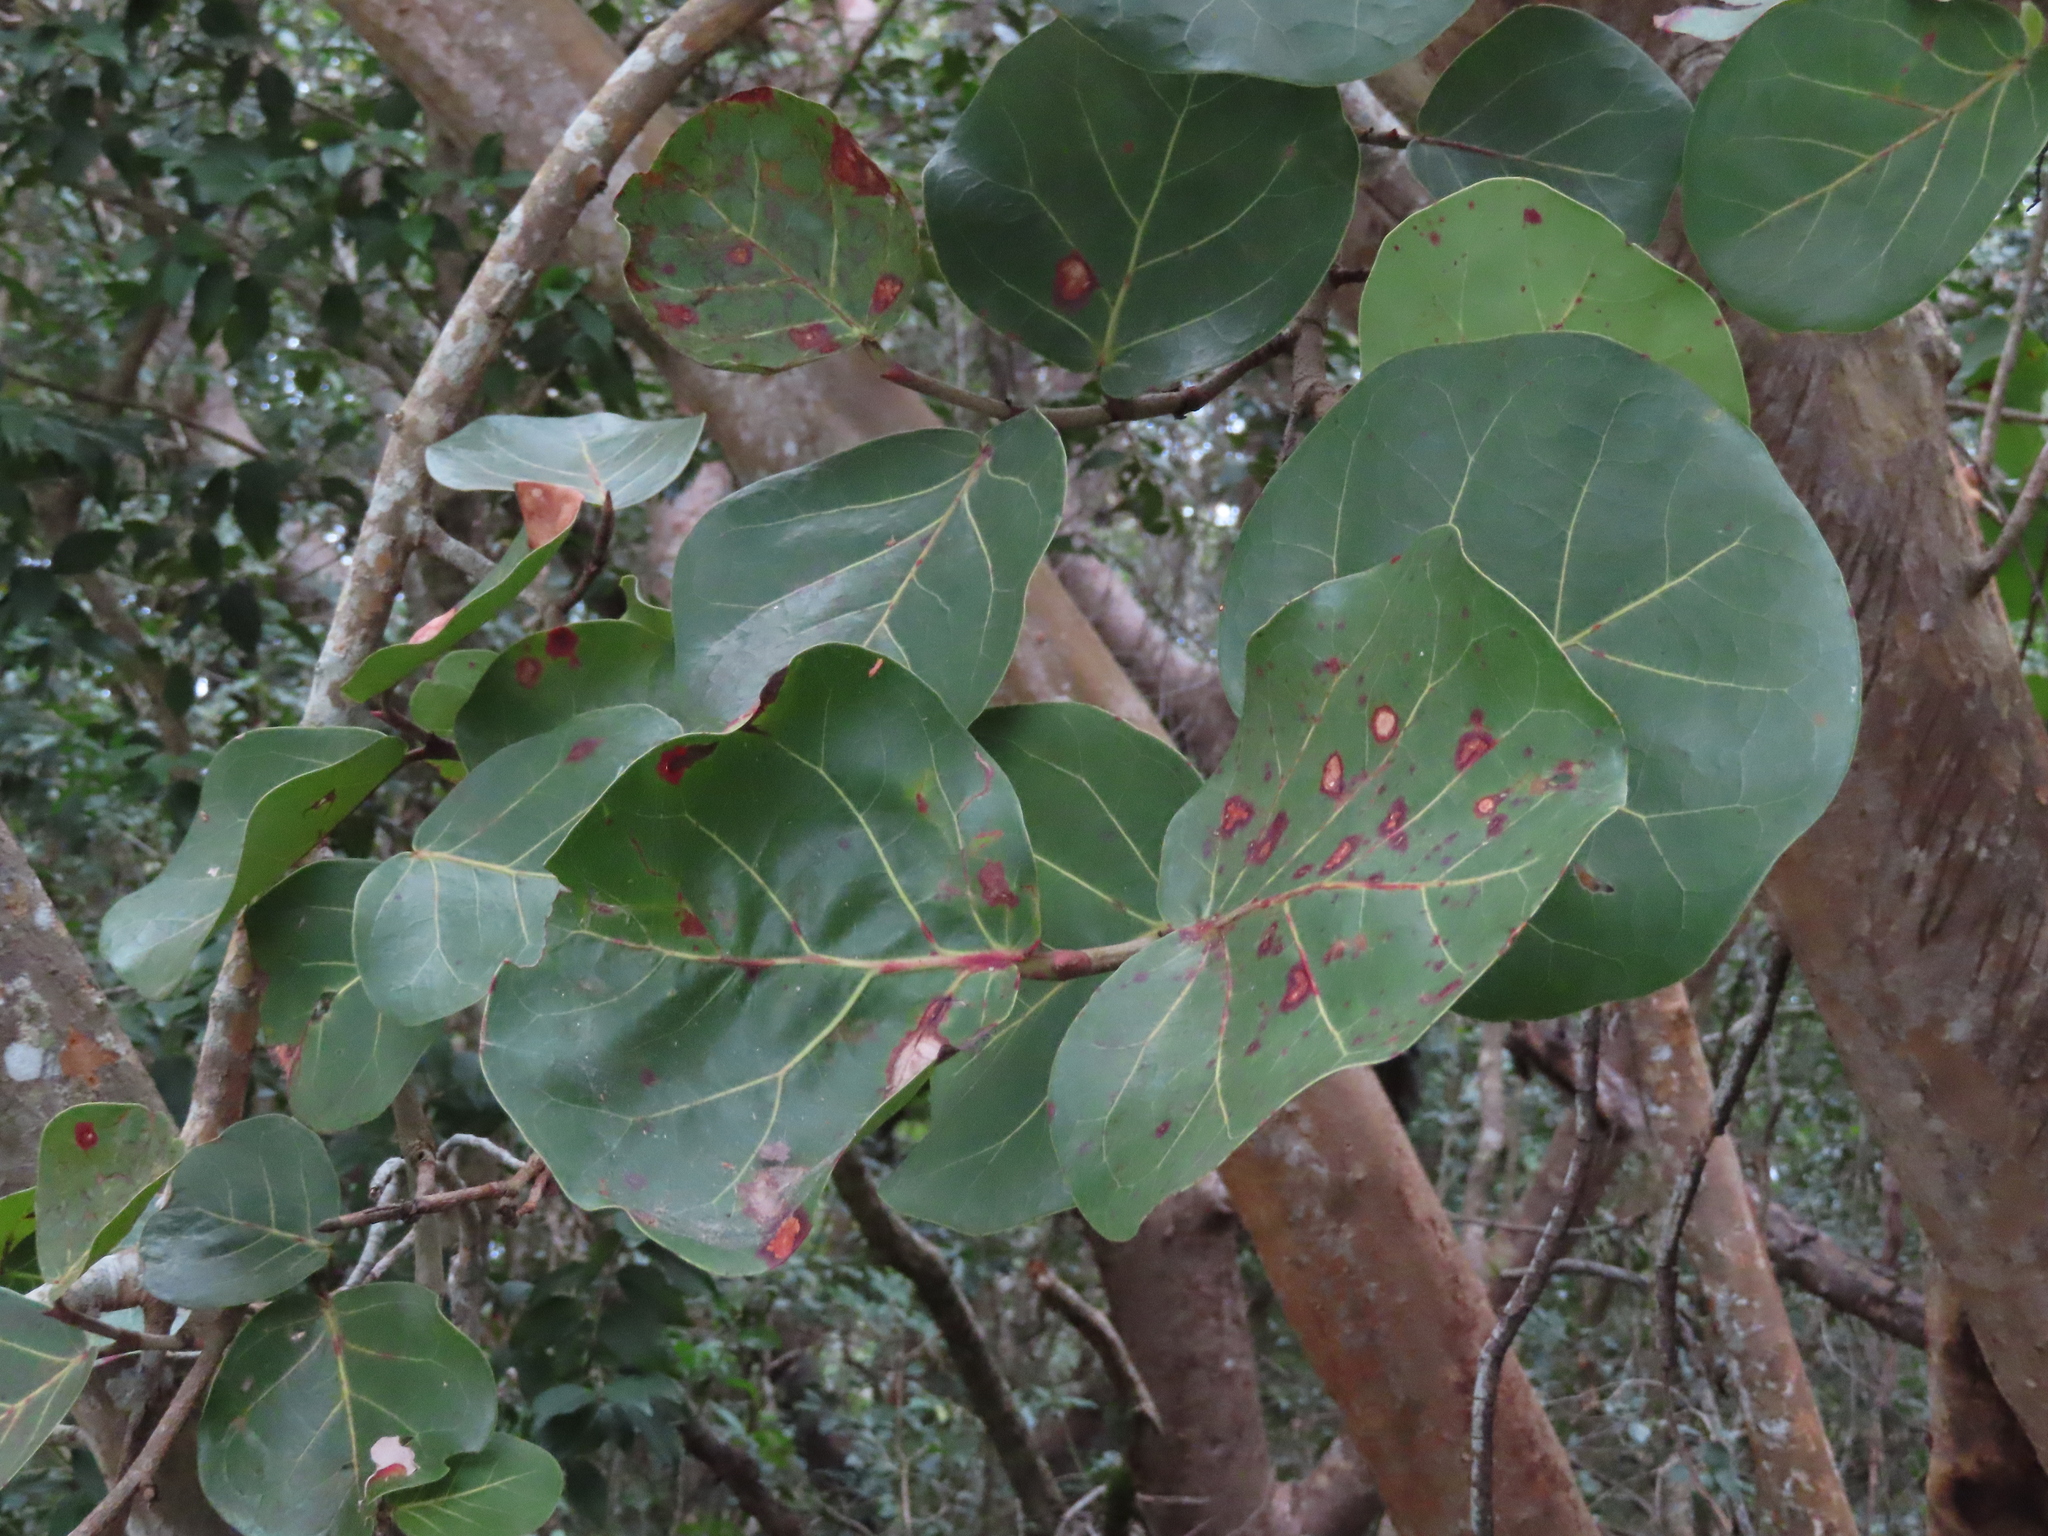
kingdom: Plantae
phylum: Tracheophyta
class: Magnoliopsida
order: Caryophyllales
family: Polygonaceae
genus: Coccoloba
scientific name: Coccoloba uvifera
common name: Seagrape
